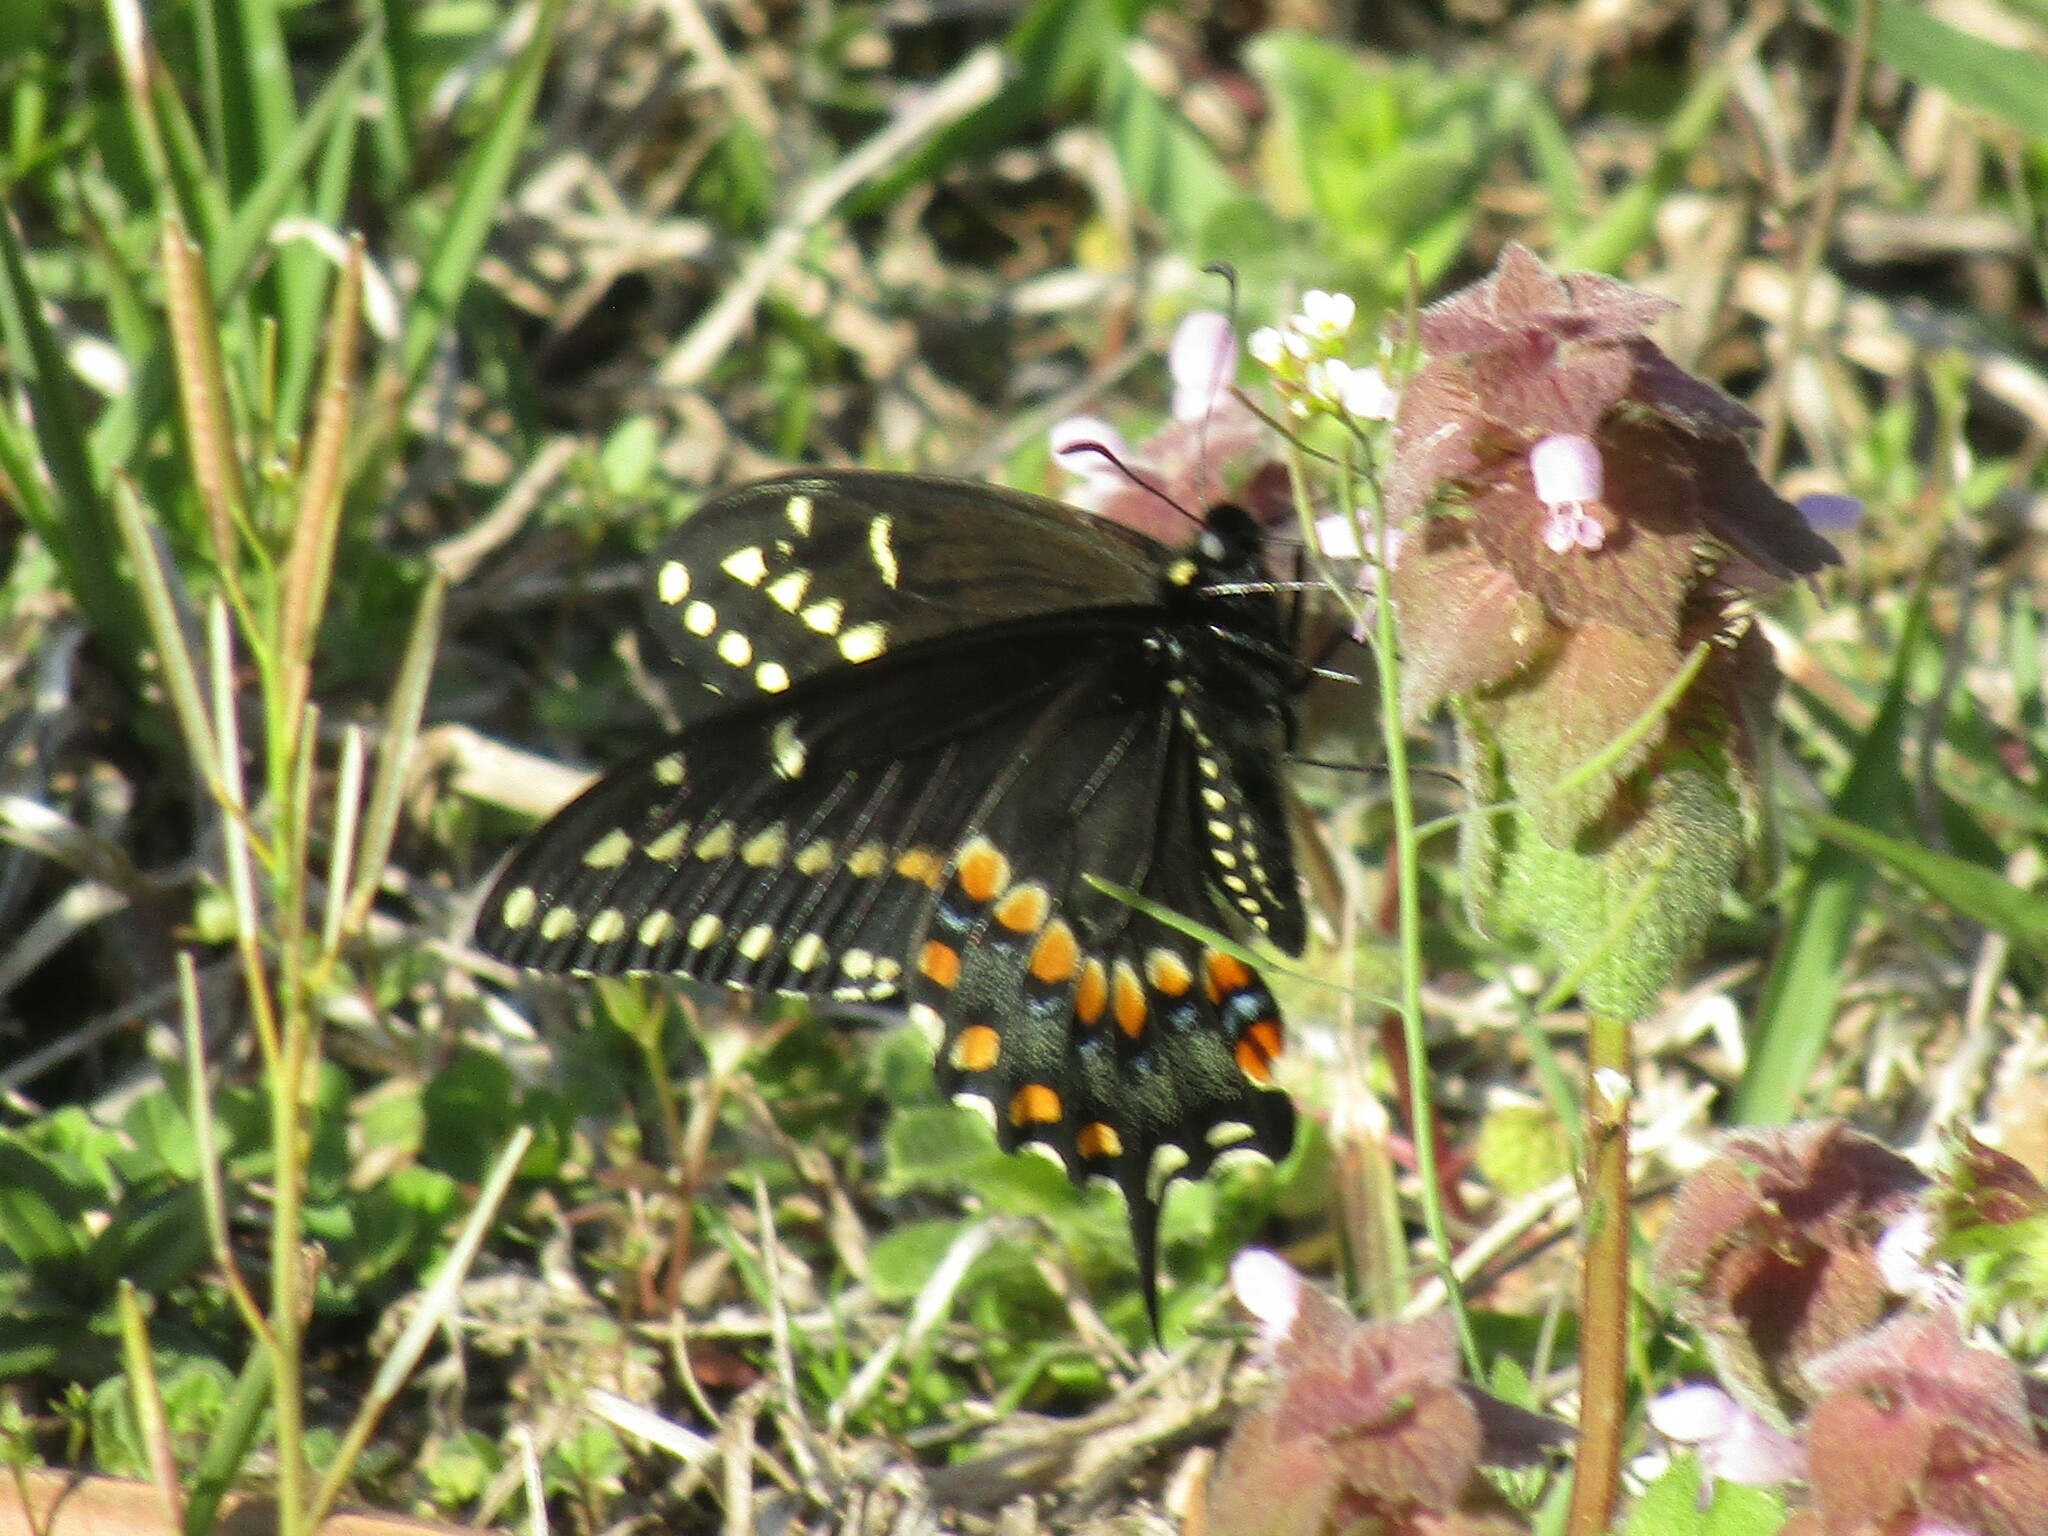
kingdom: Animalia
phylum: Arthropoda
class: Insecta
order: Lepidoptera
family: Papilionidae
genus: Papilio
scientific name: Papilio polyxenes
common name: Black swallowtail
